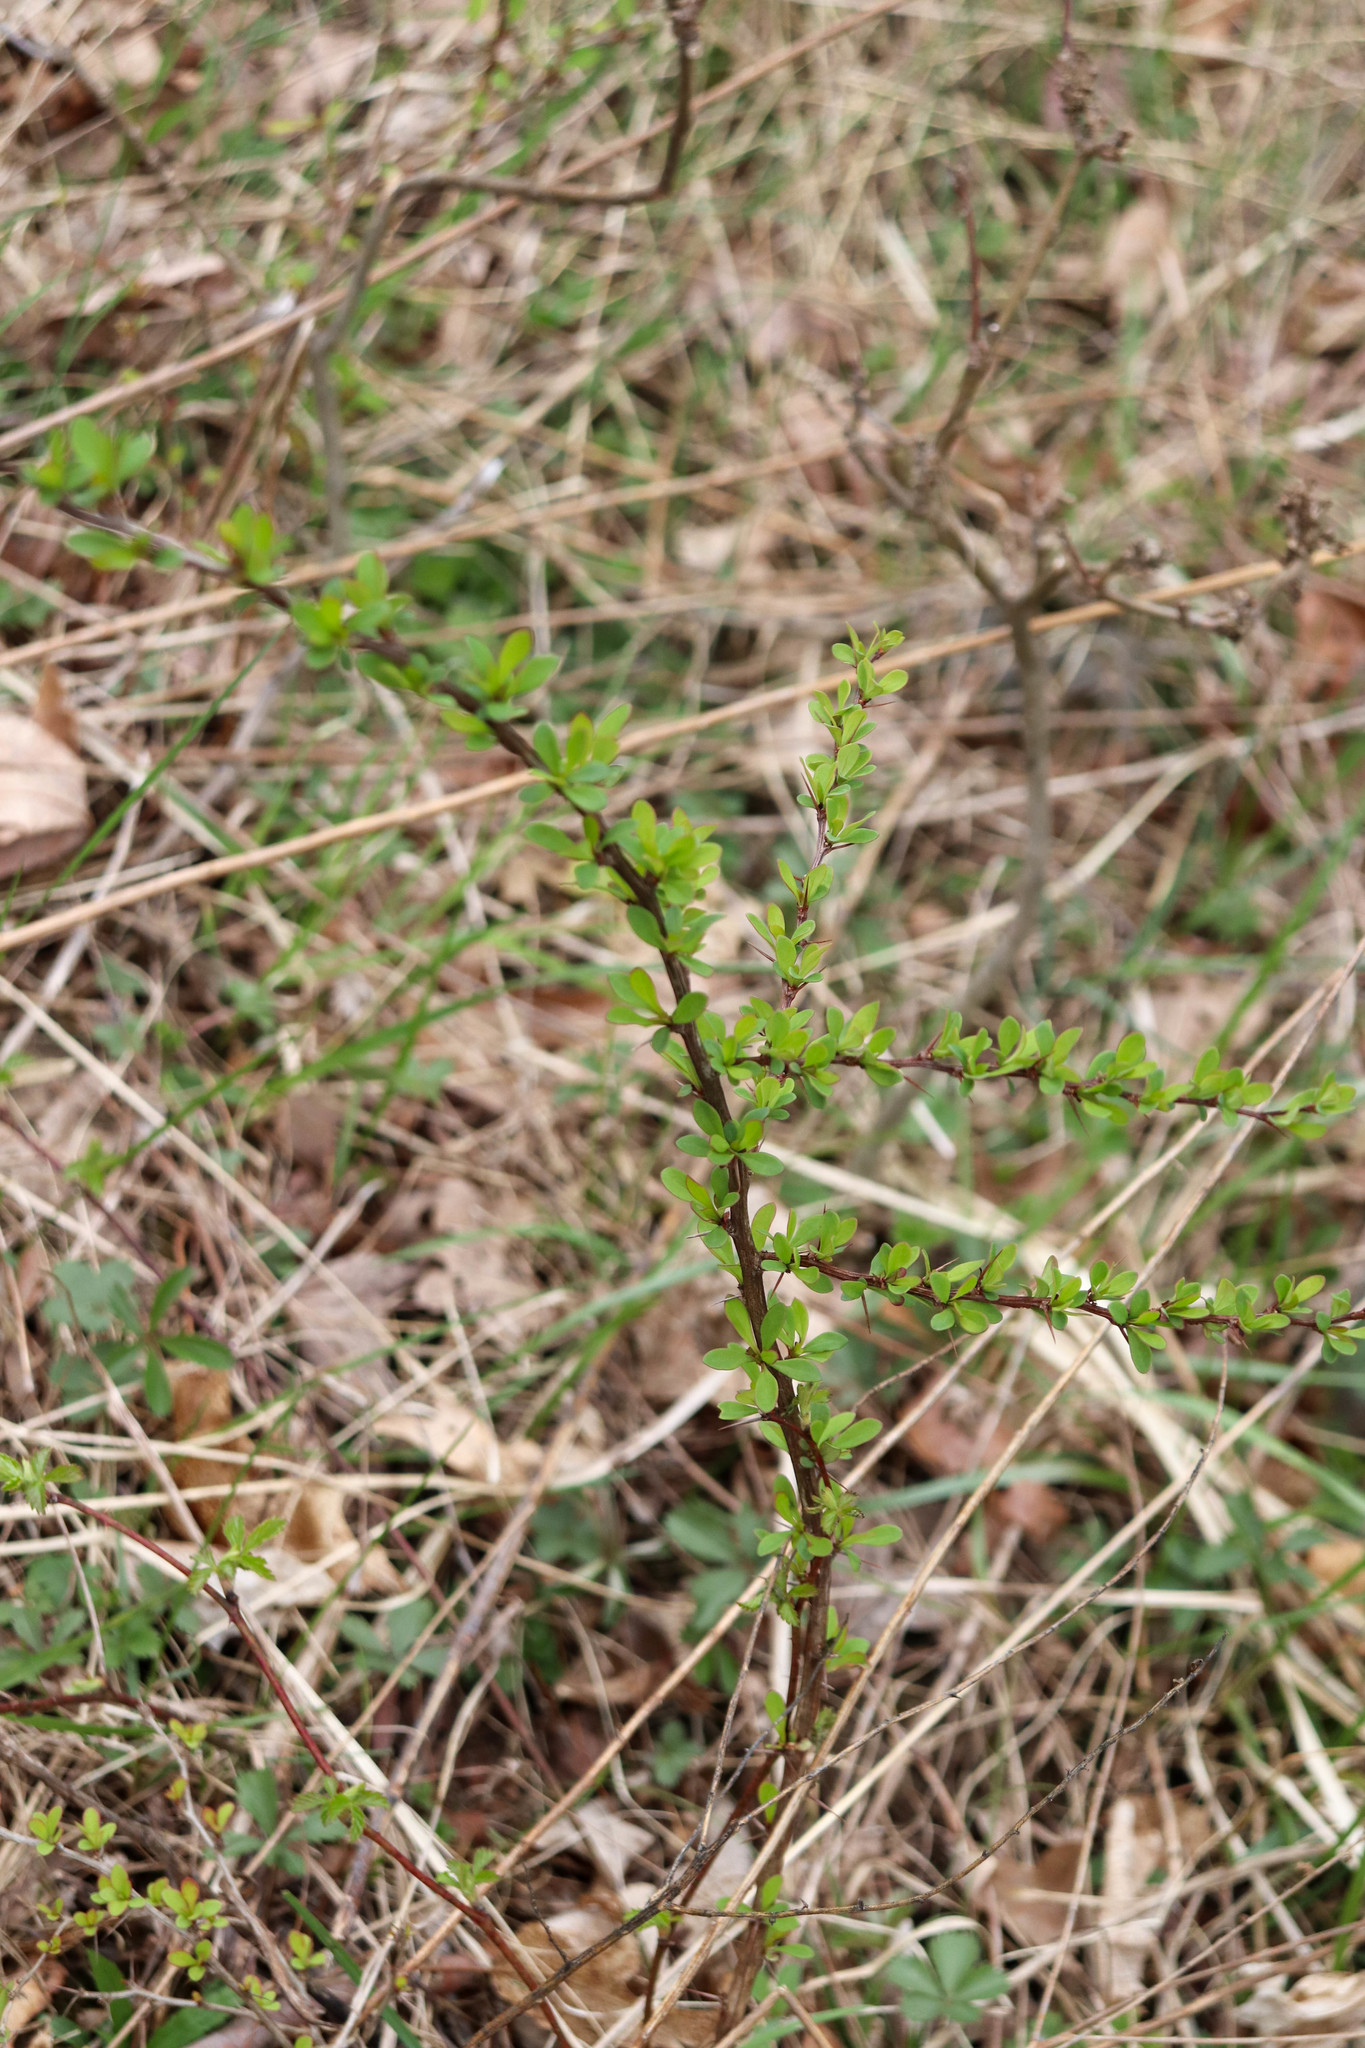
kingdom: Plantae
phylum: Tracheophyta
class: Magnoliopsida
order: Ranunculales
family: Berberidaceae
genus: Berberis
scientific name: Berberis thunbergii
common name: Japanese barberry
